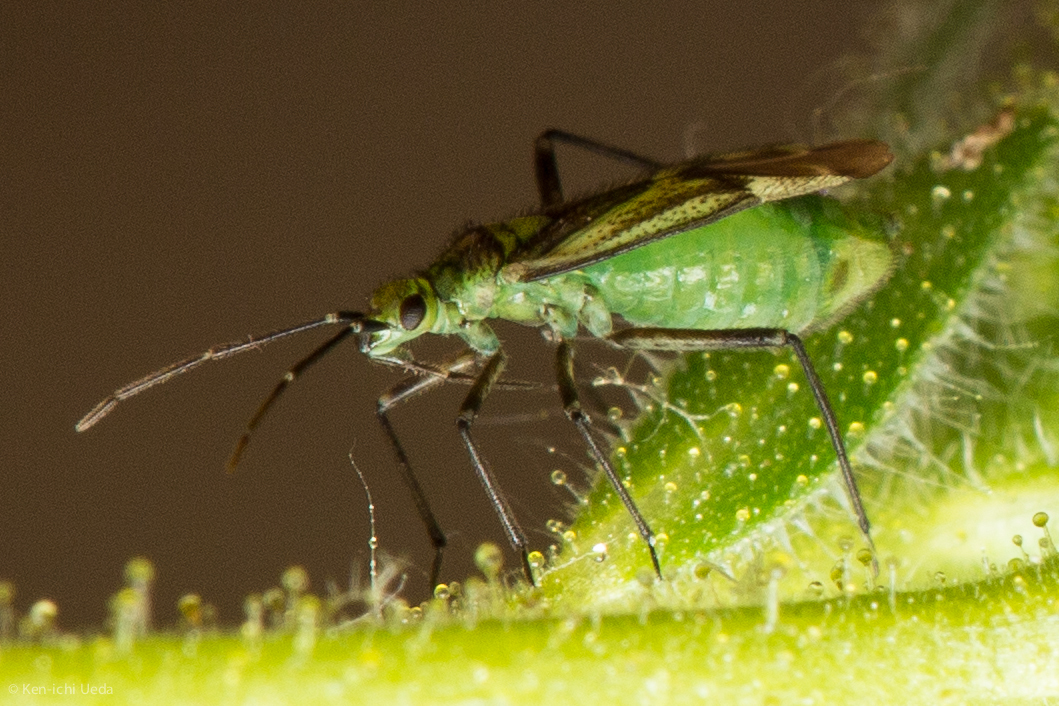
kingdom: Animalia
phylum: Arthropoda
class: Insecta
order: Hemiptera
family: Miridae
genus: Macrotylus
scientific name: Macrotylus intermedius
